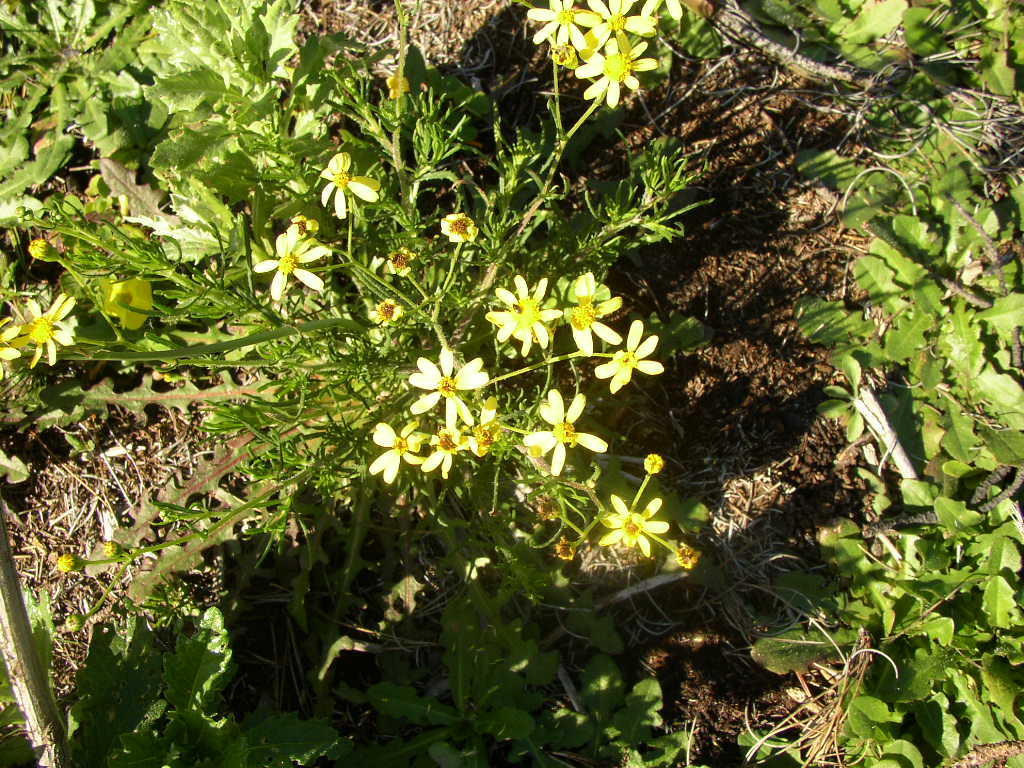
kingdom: Plantae
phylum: Tracheophyta
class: Magnoliopsida
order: Asterales
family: Asteraceae
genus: Senecio
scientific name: Senecio burchellii
